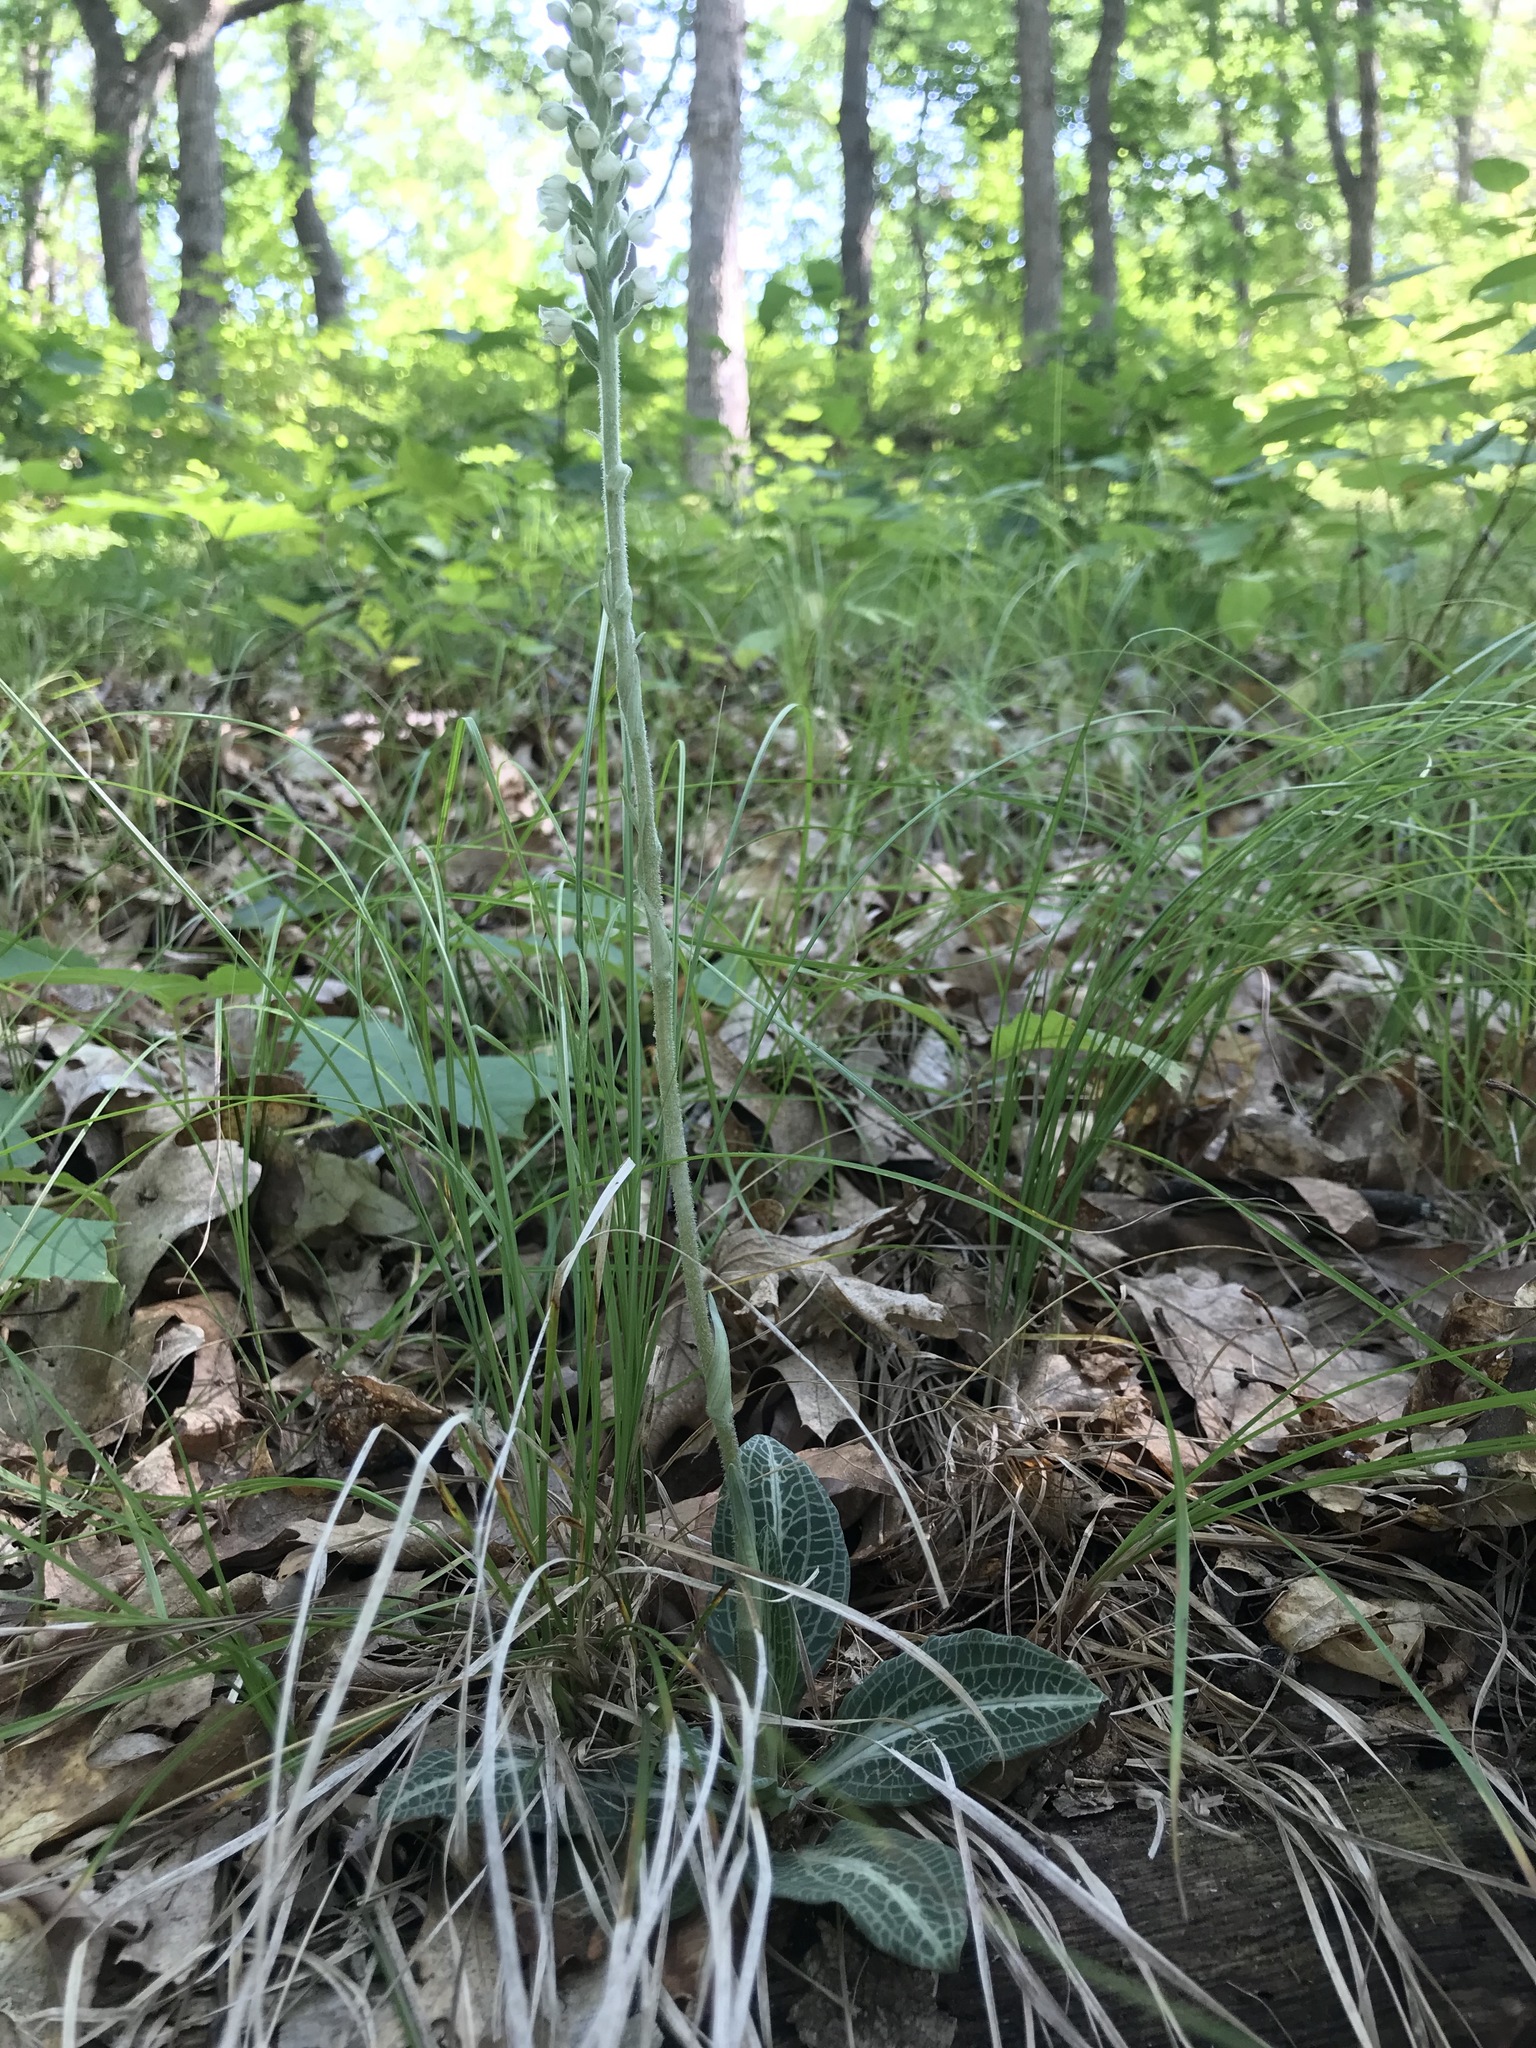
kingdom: Plantae
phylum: Tracheophyta
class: Liliopsida
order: Asparagales
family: Orchidaceae
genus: Goodyera
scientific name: Goodyera pubescens
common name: Downy rattlesnake-plantain
